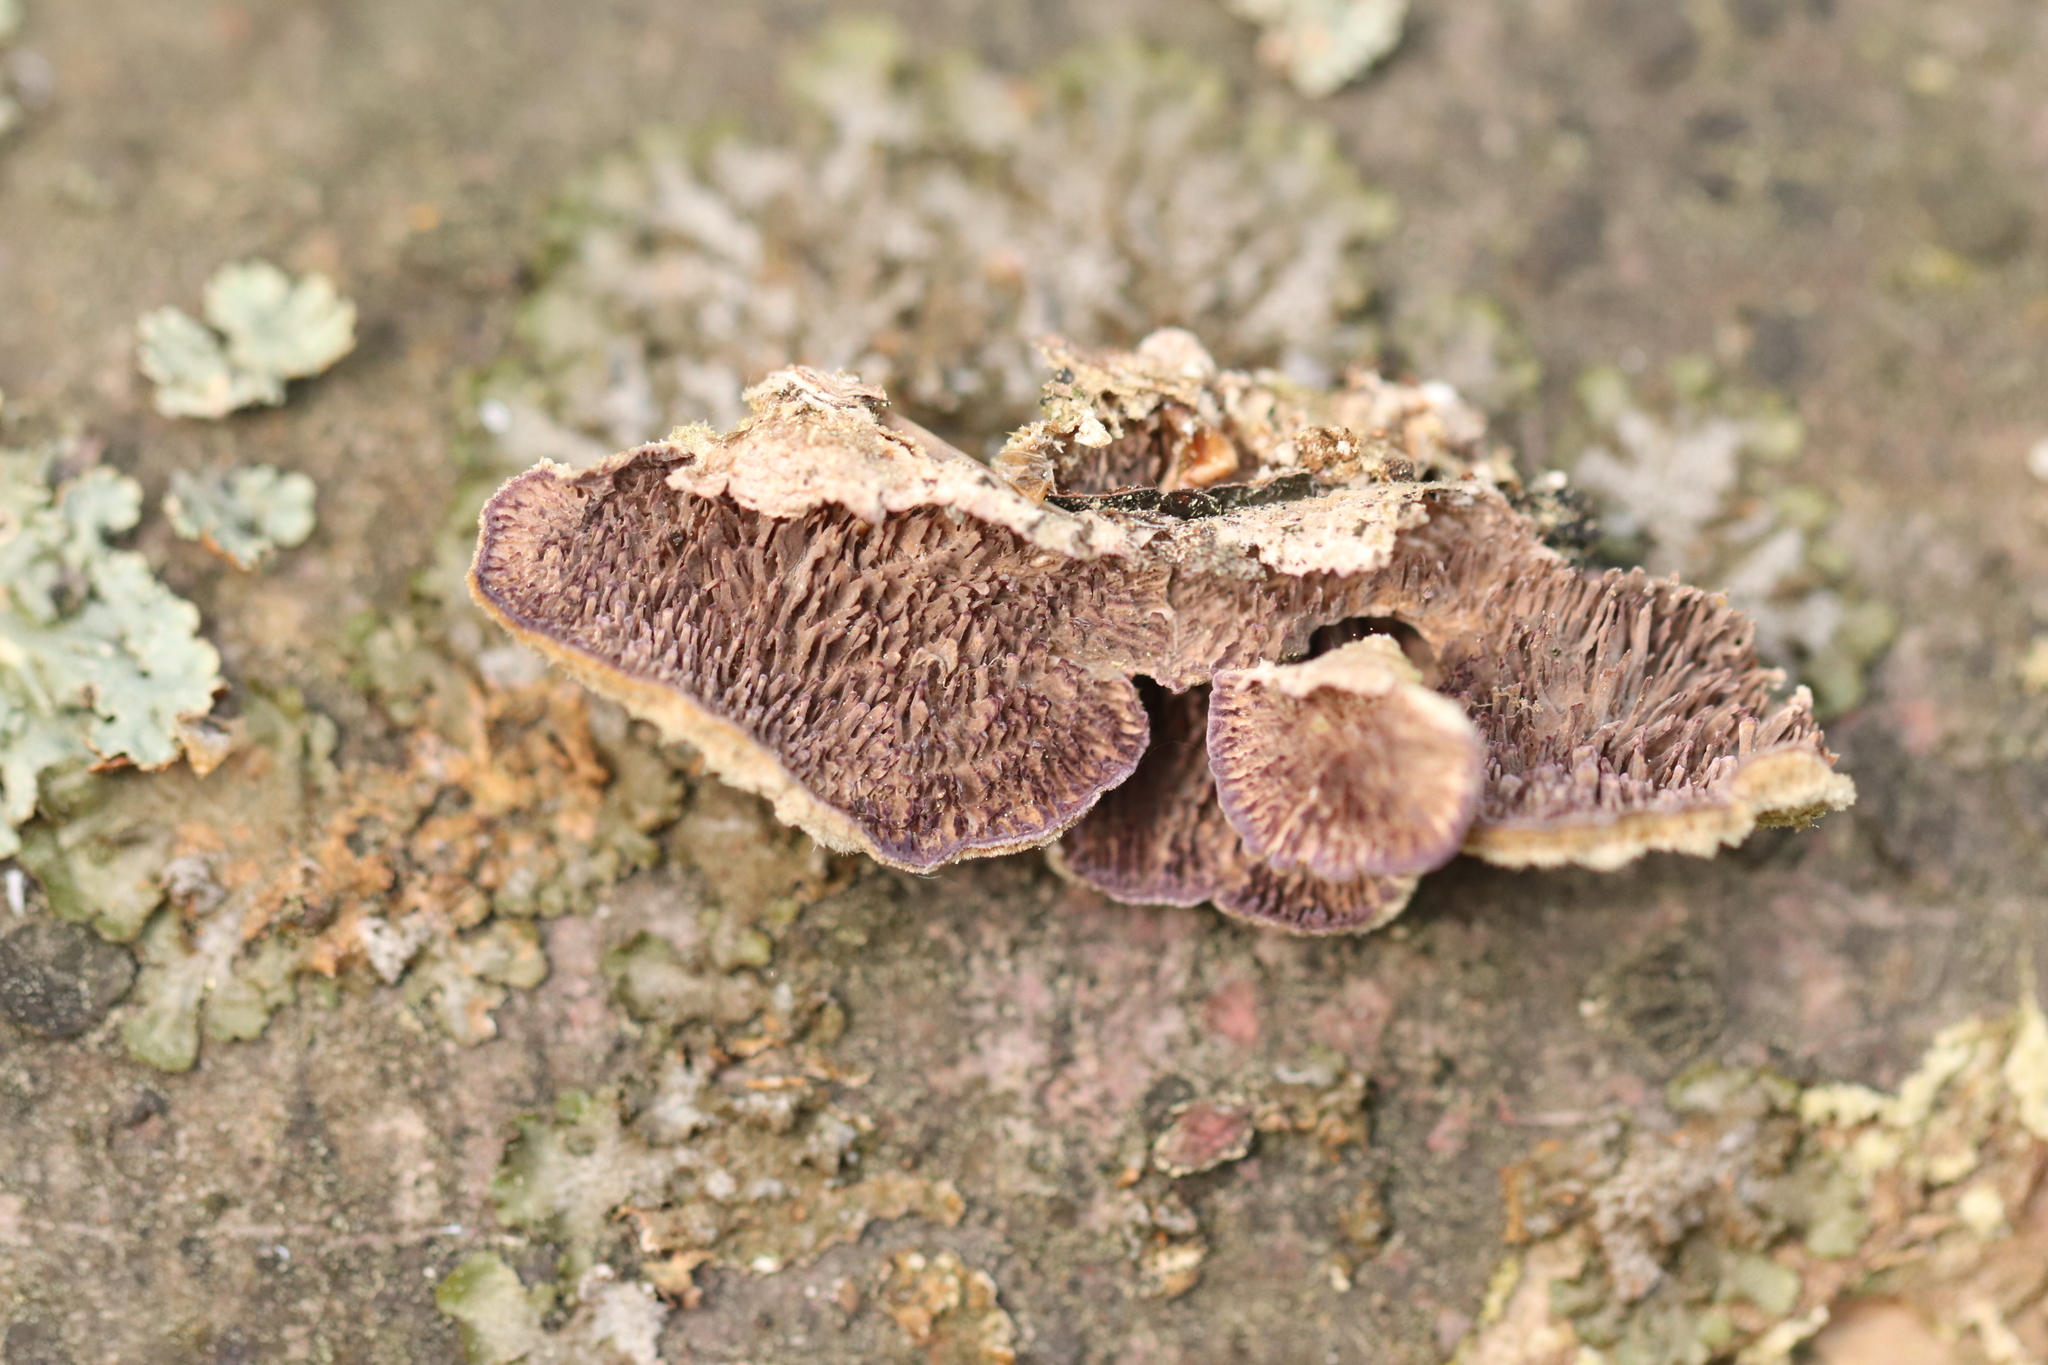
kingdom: Fungi
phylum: Basidiomycota
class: Agaricomycetes
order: Hymenochaetales
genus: Trichaptum
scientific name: Trichaptum fuscoviolaceum
